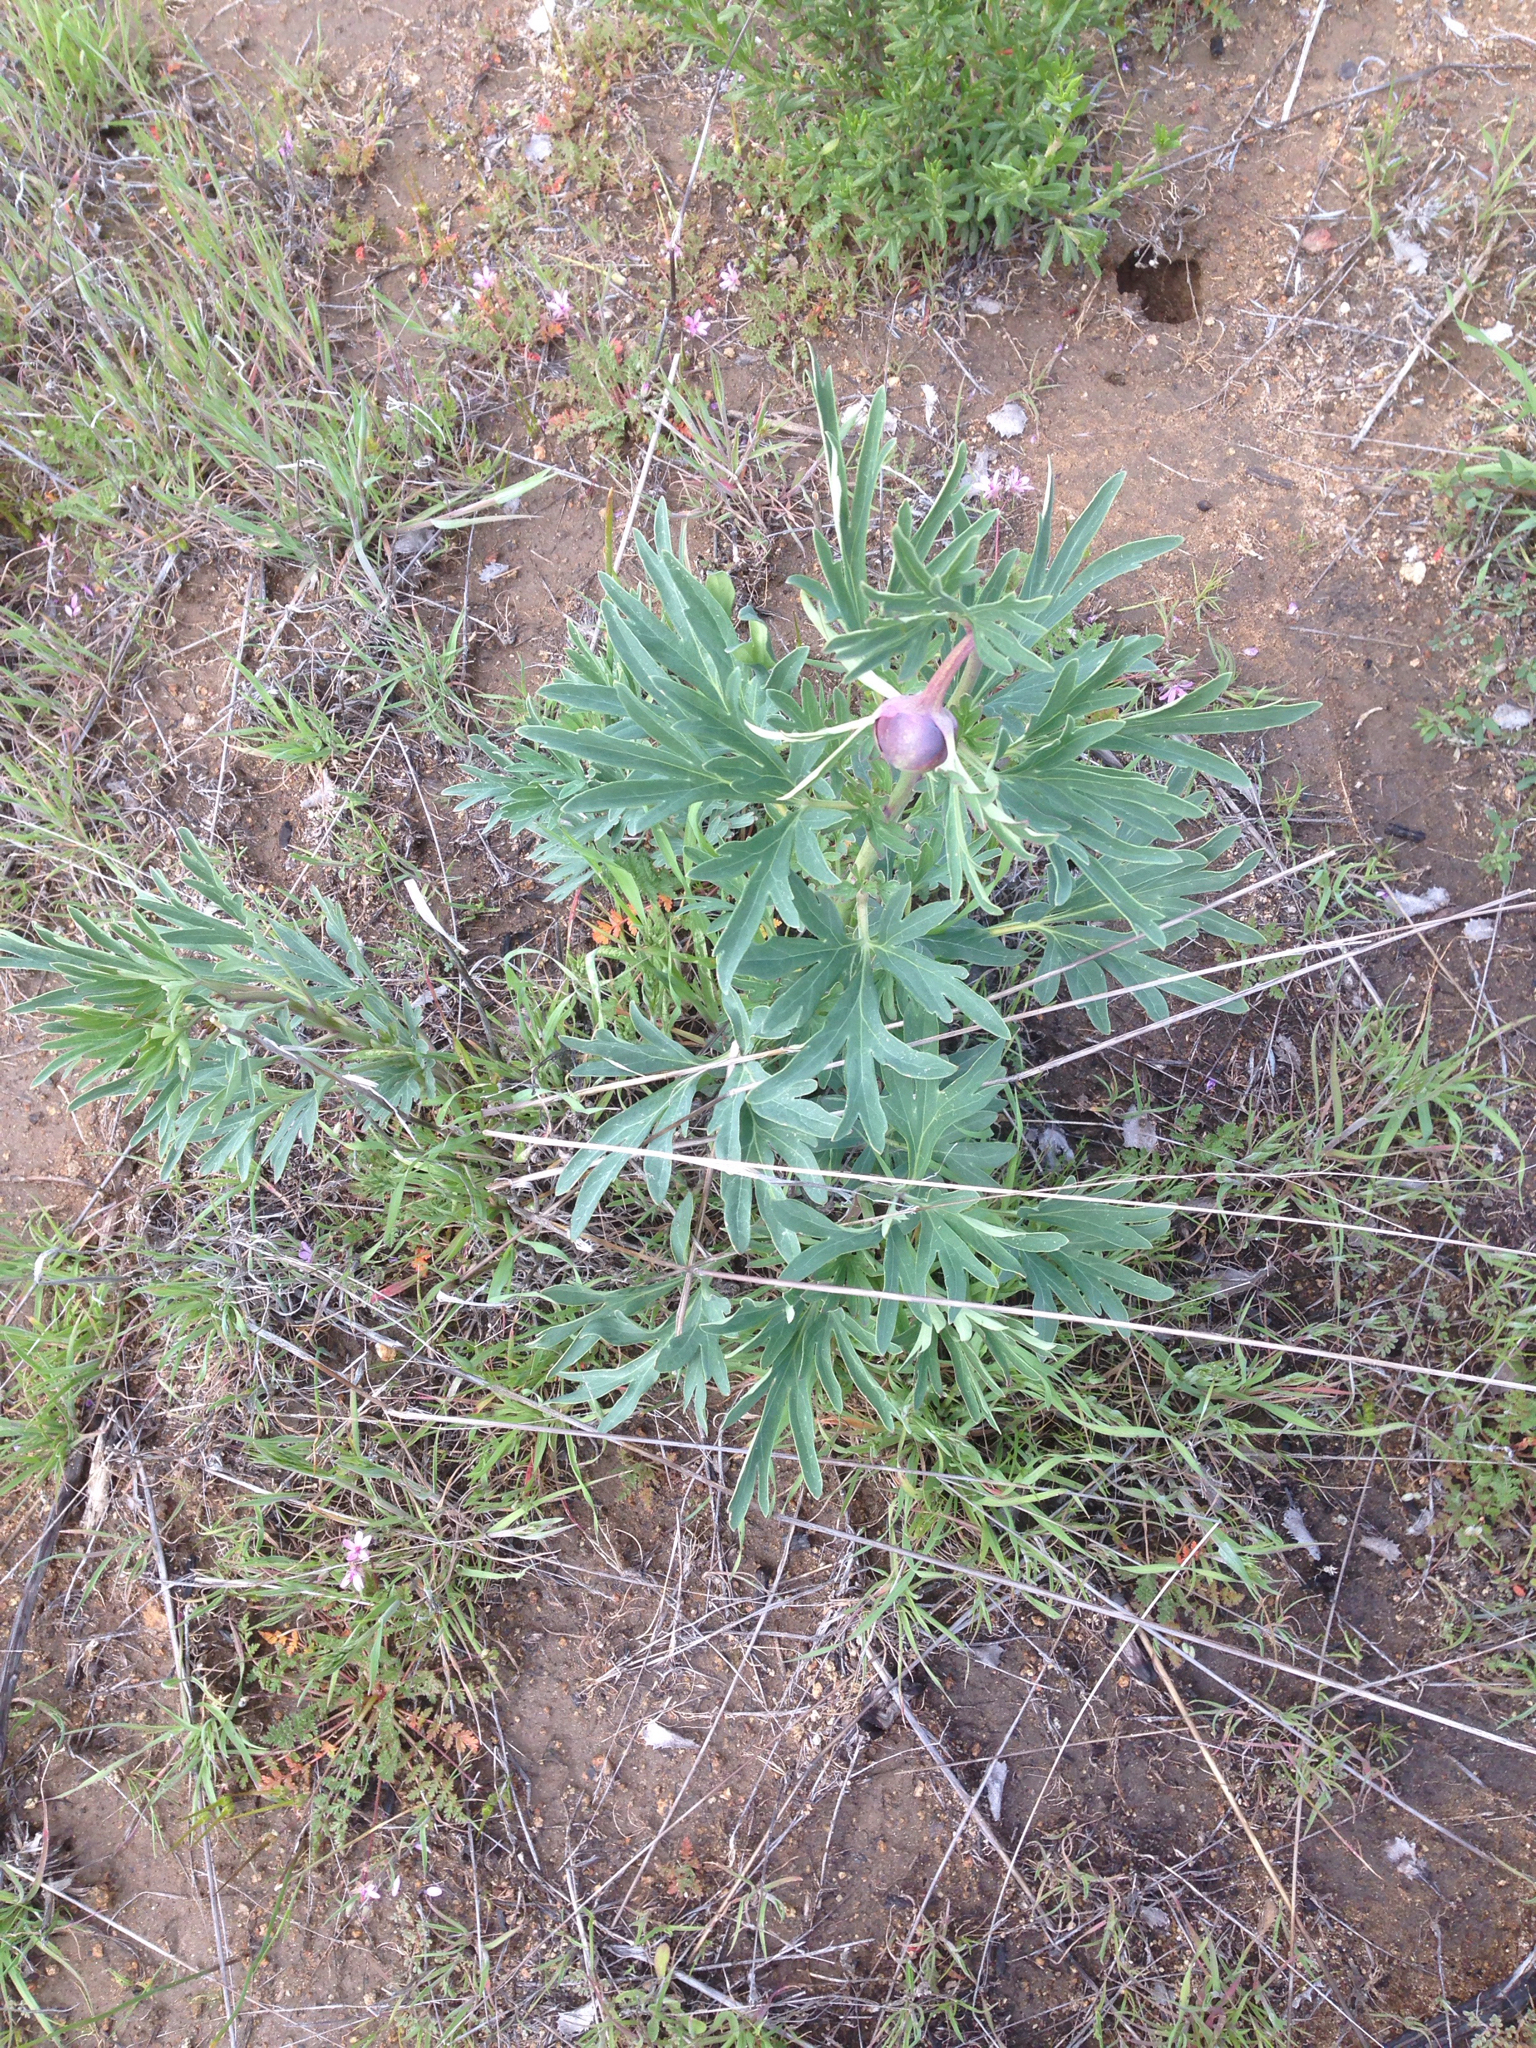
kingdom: Plantae
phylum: Tracheophyta
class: Magnoliopsida
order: Saxifragales
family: Paeoniaceae
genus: Paeonia
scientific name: Paeonia californica
